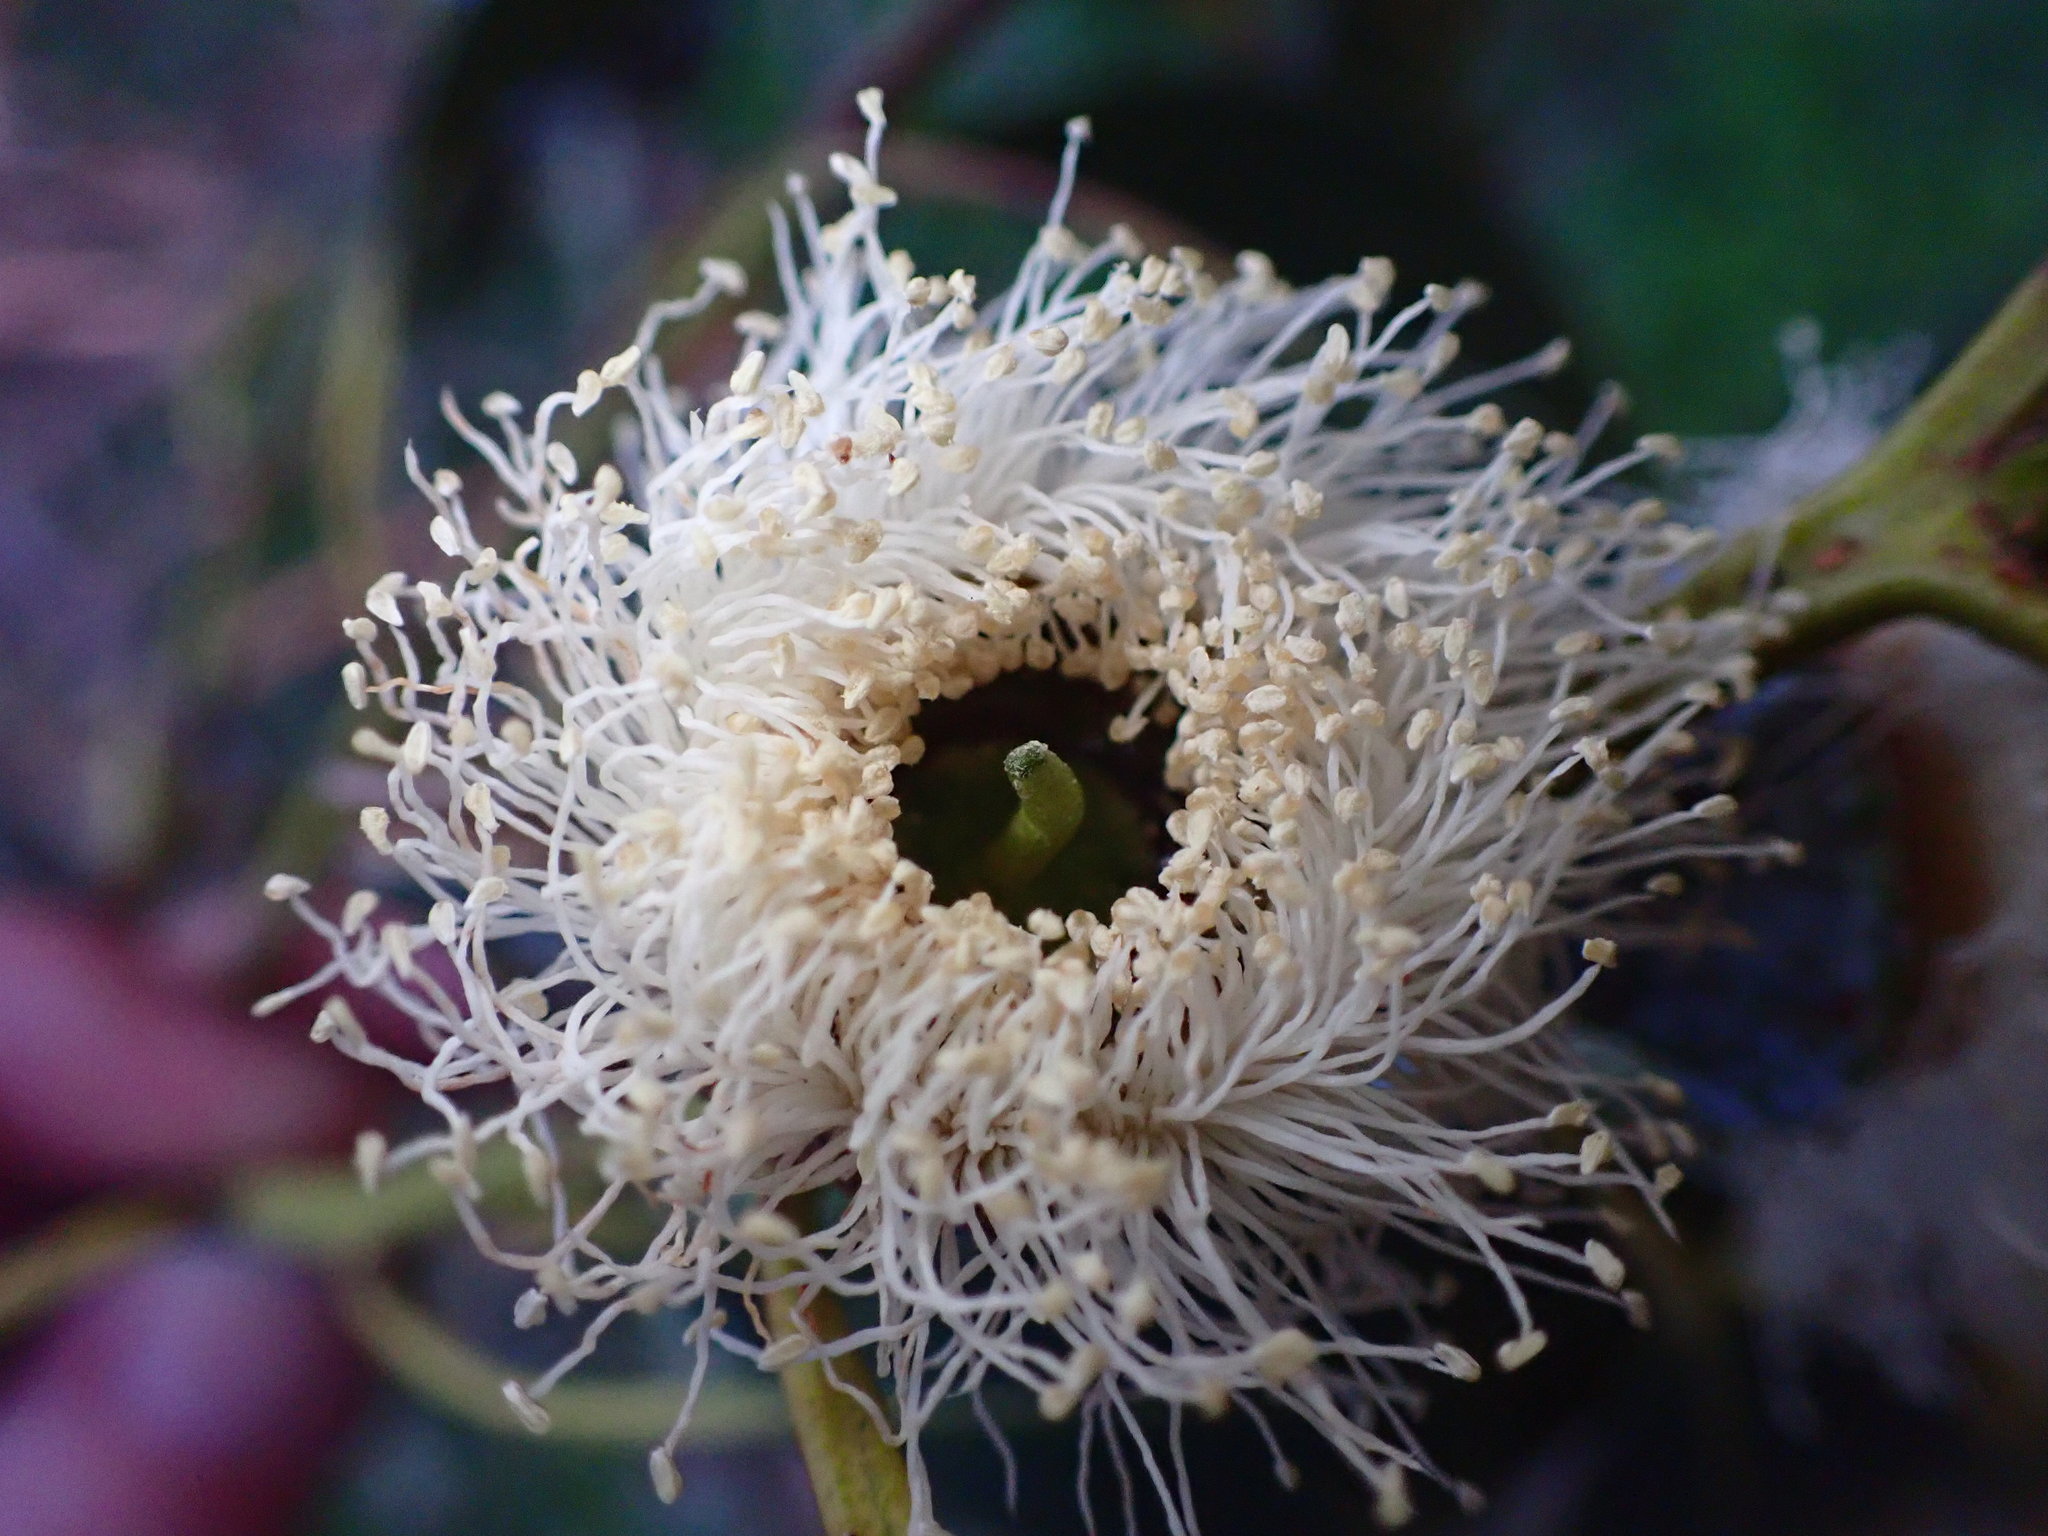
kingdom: Plantae
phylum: Tracheophyta
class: Magnoliopsida
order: Myrtales
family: Myrtaceae
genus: Eucalyptus
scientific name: Eucalyptus globulus
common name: Southern blue-gum
